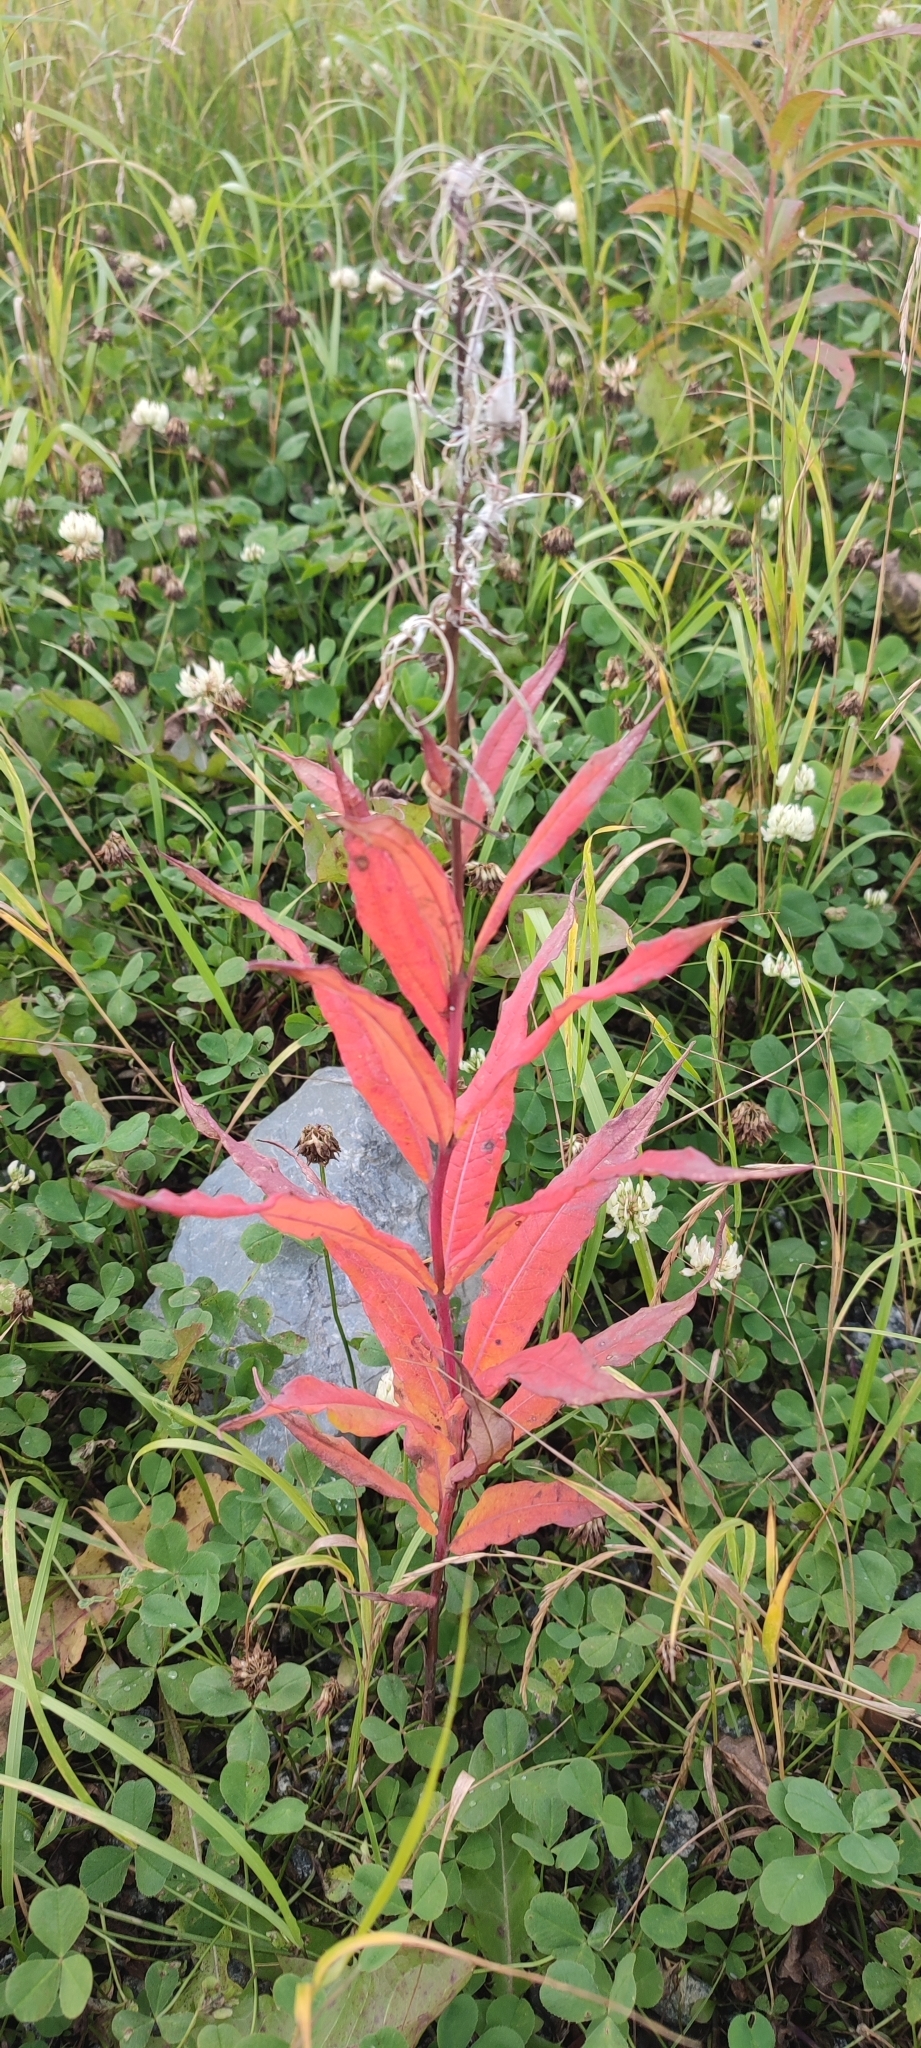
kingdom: Plantae
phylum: Tracheophyta
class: Magnoliopsida
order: Myrtales
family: Onagraceae
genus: Chamaenerion
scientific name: Chamaenerion angustifolium
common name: Fireweed
